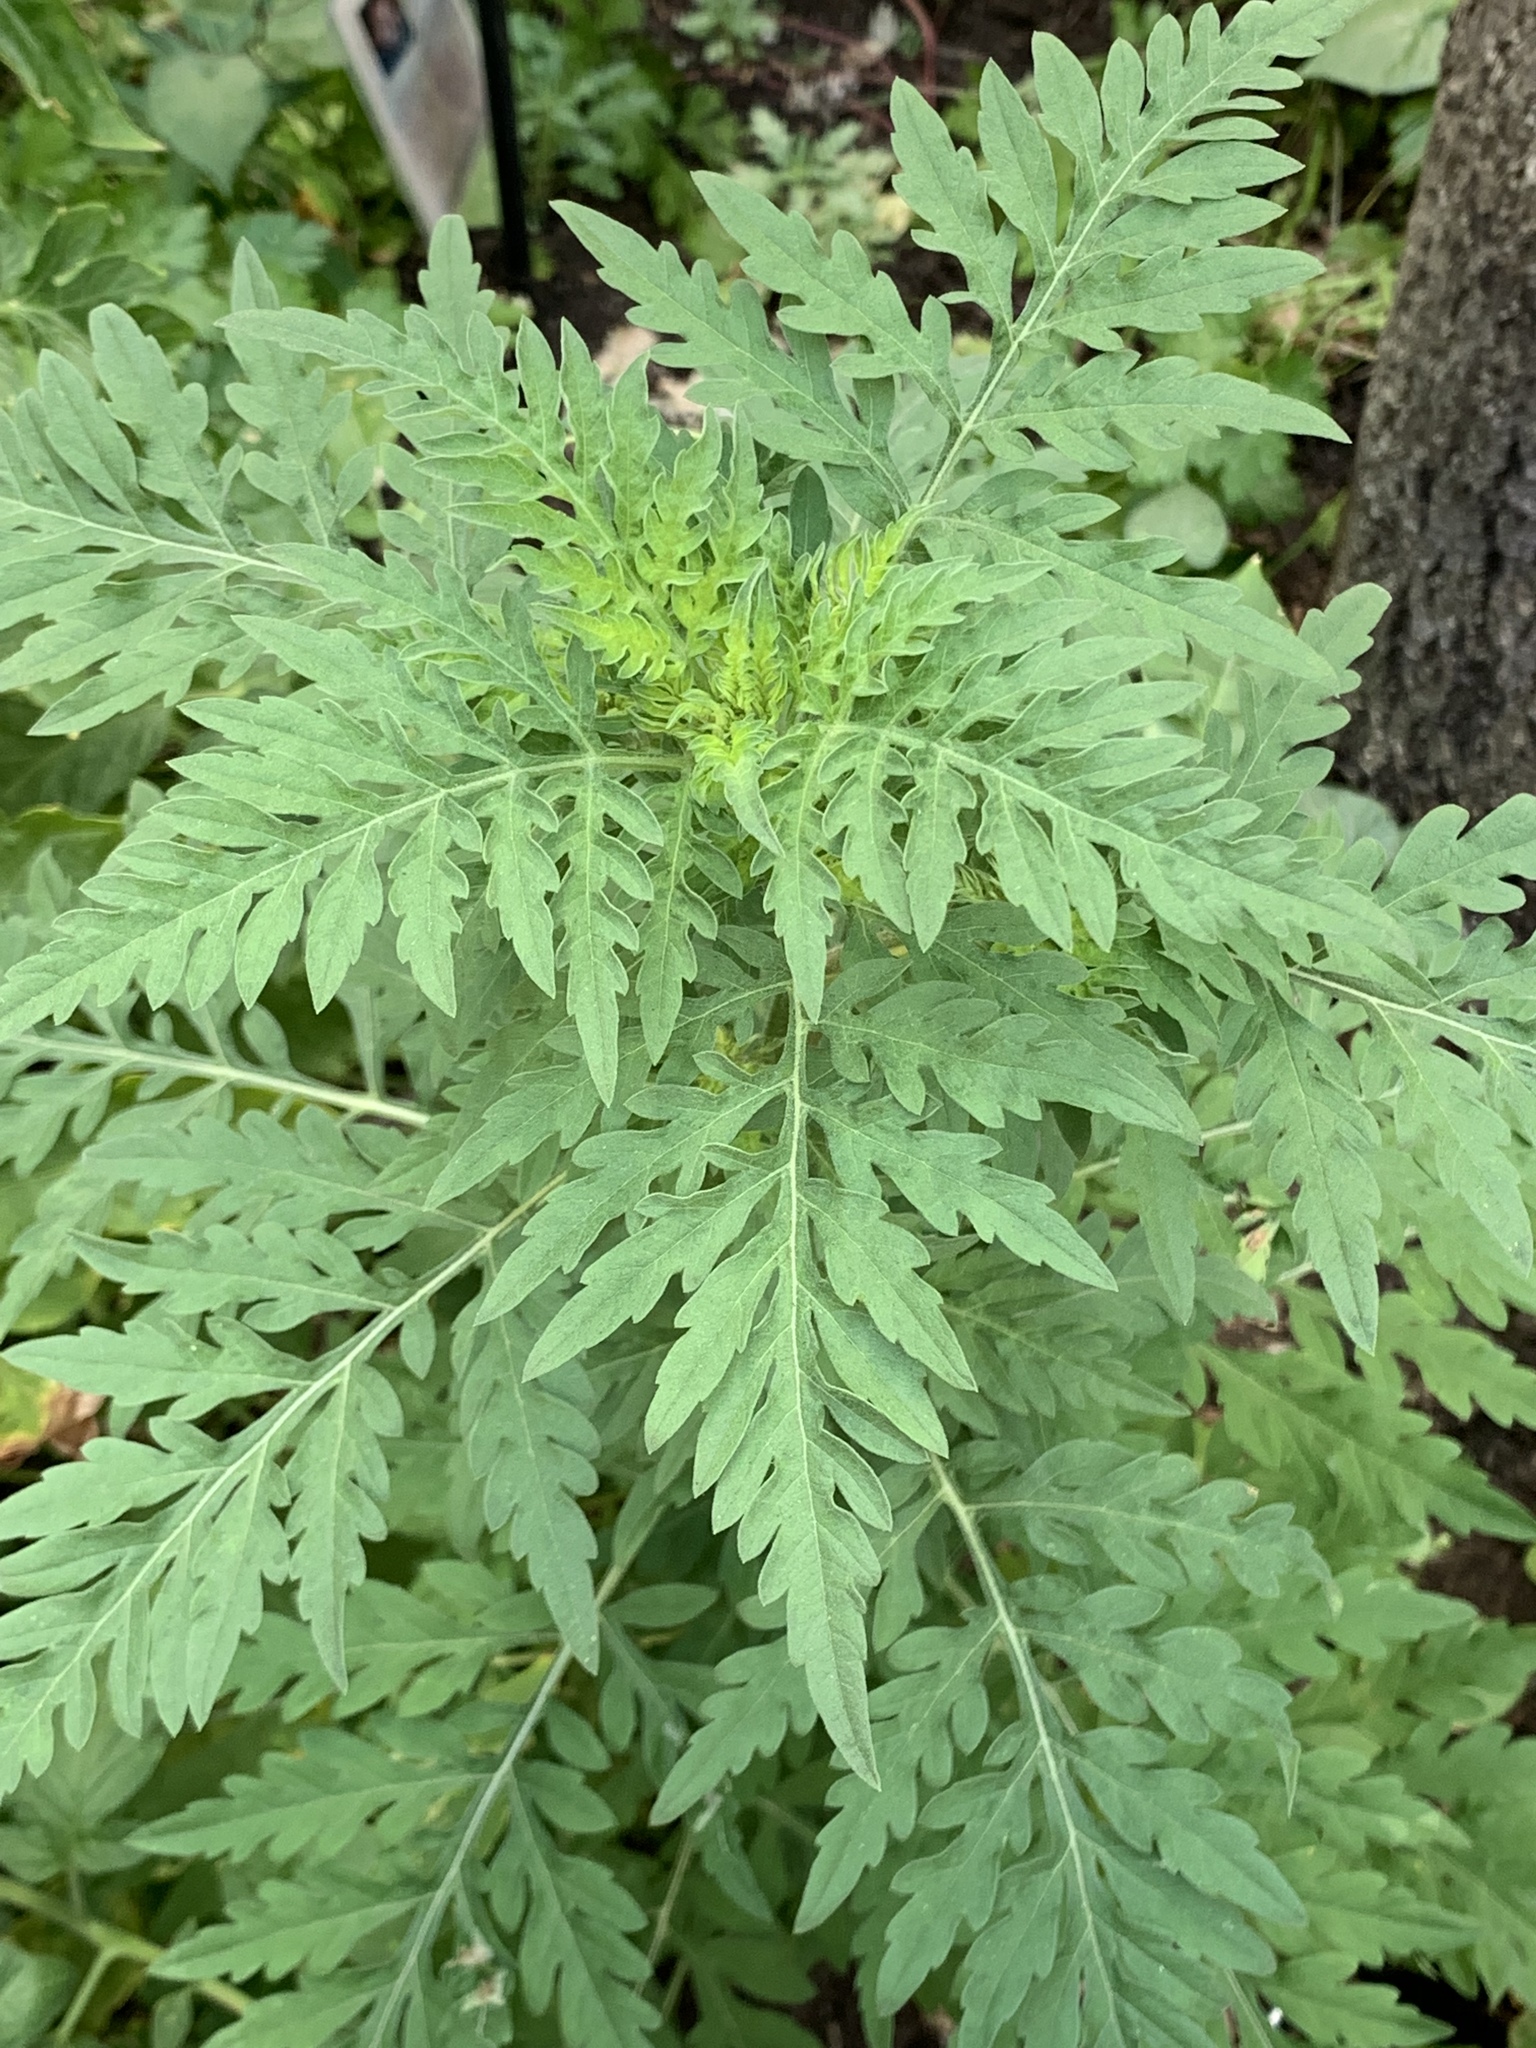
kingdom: Plantae
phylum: Tracheophyta
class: Magnoliopsida
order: Asterales
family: Asteraceae
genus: Ambrosia
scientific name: Ambrosia artemisiifolia
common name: Annual ragweed
